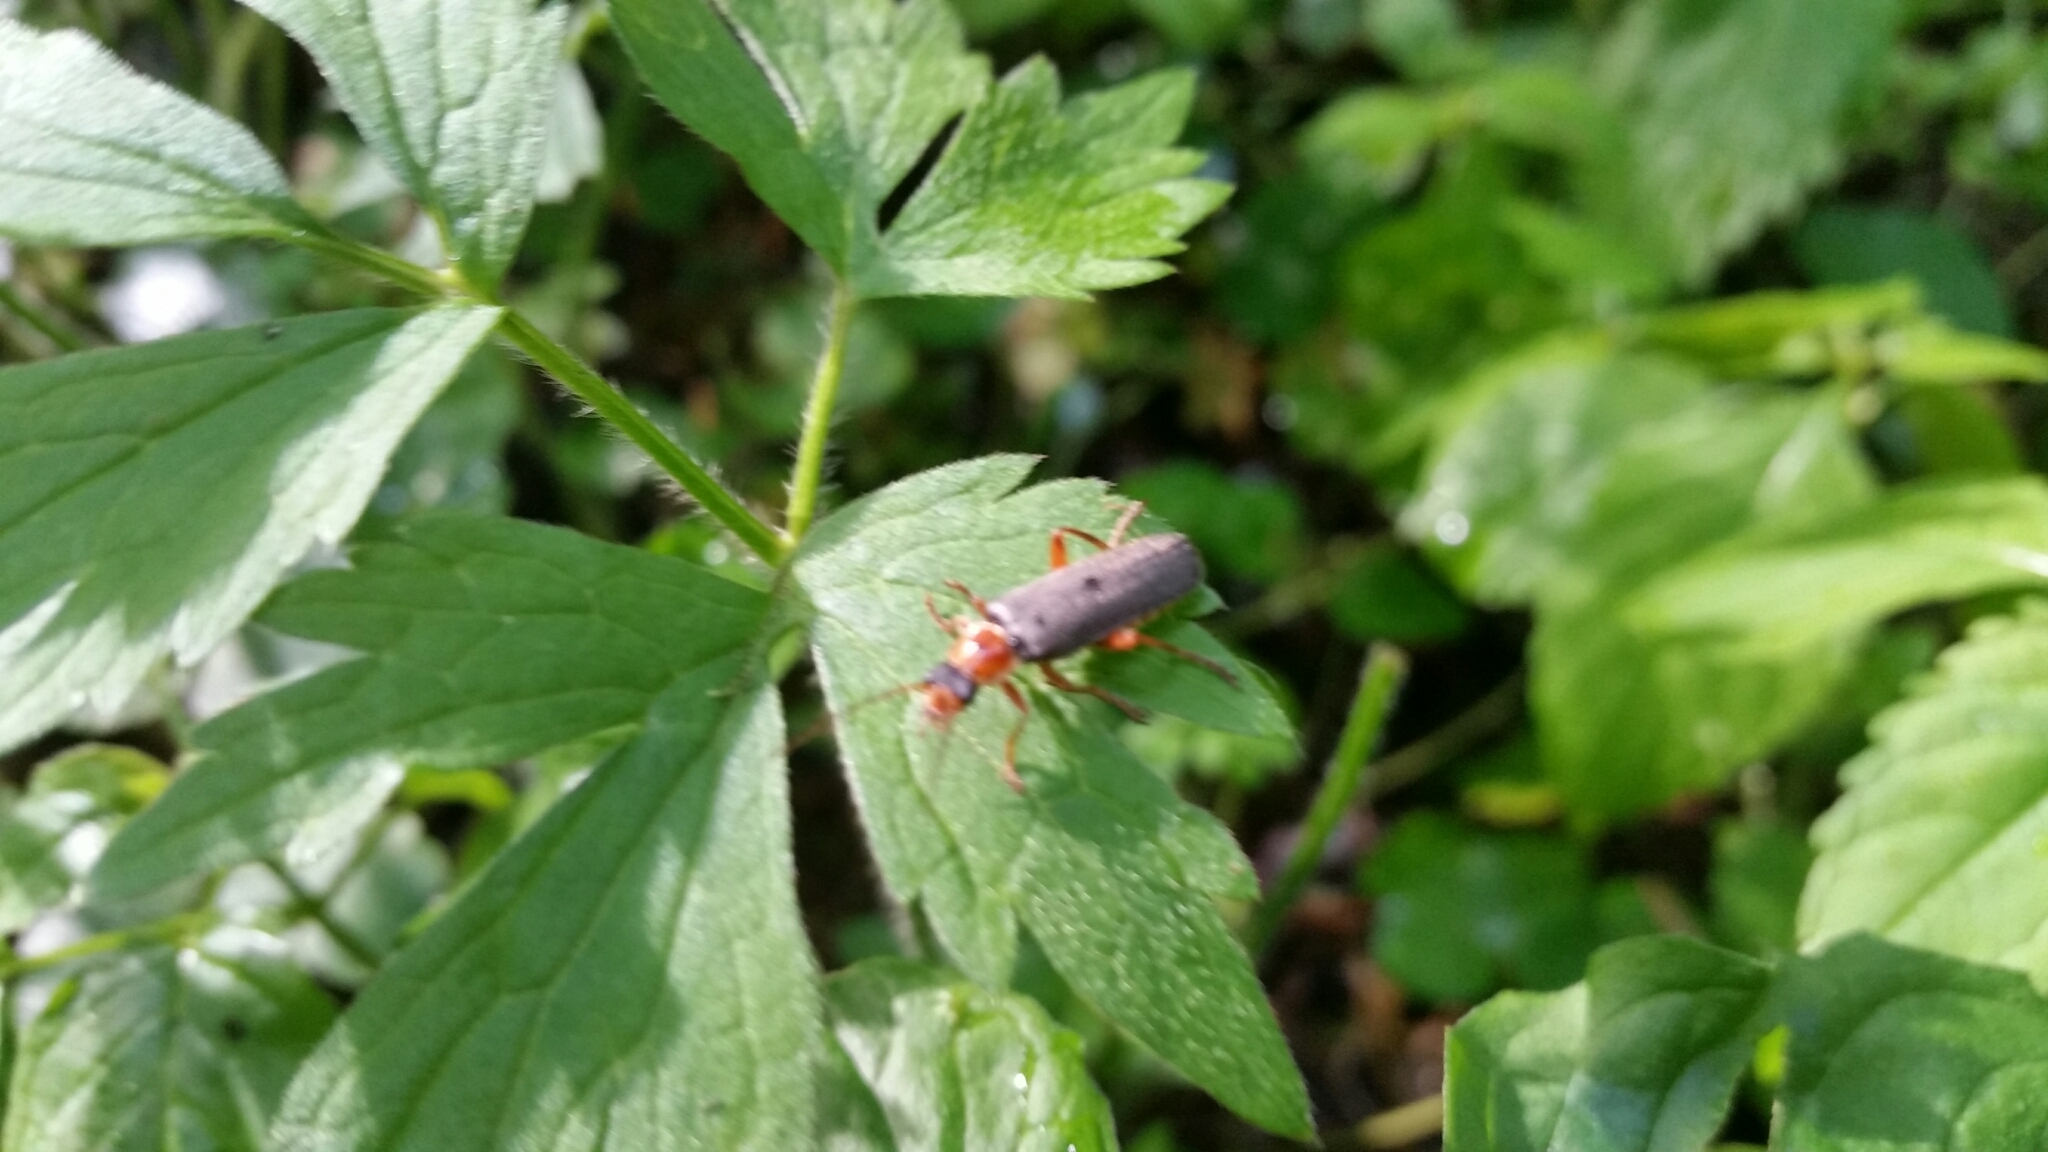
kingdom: Animalia
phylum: Arthropoda
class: Insecta
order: Coleoptera
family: Cantharidae
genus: Cantharis
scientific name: Cantharis nigricans
